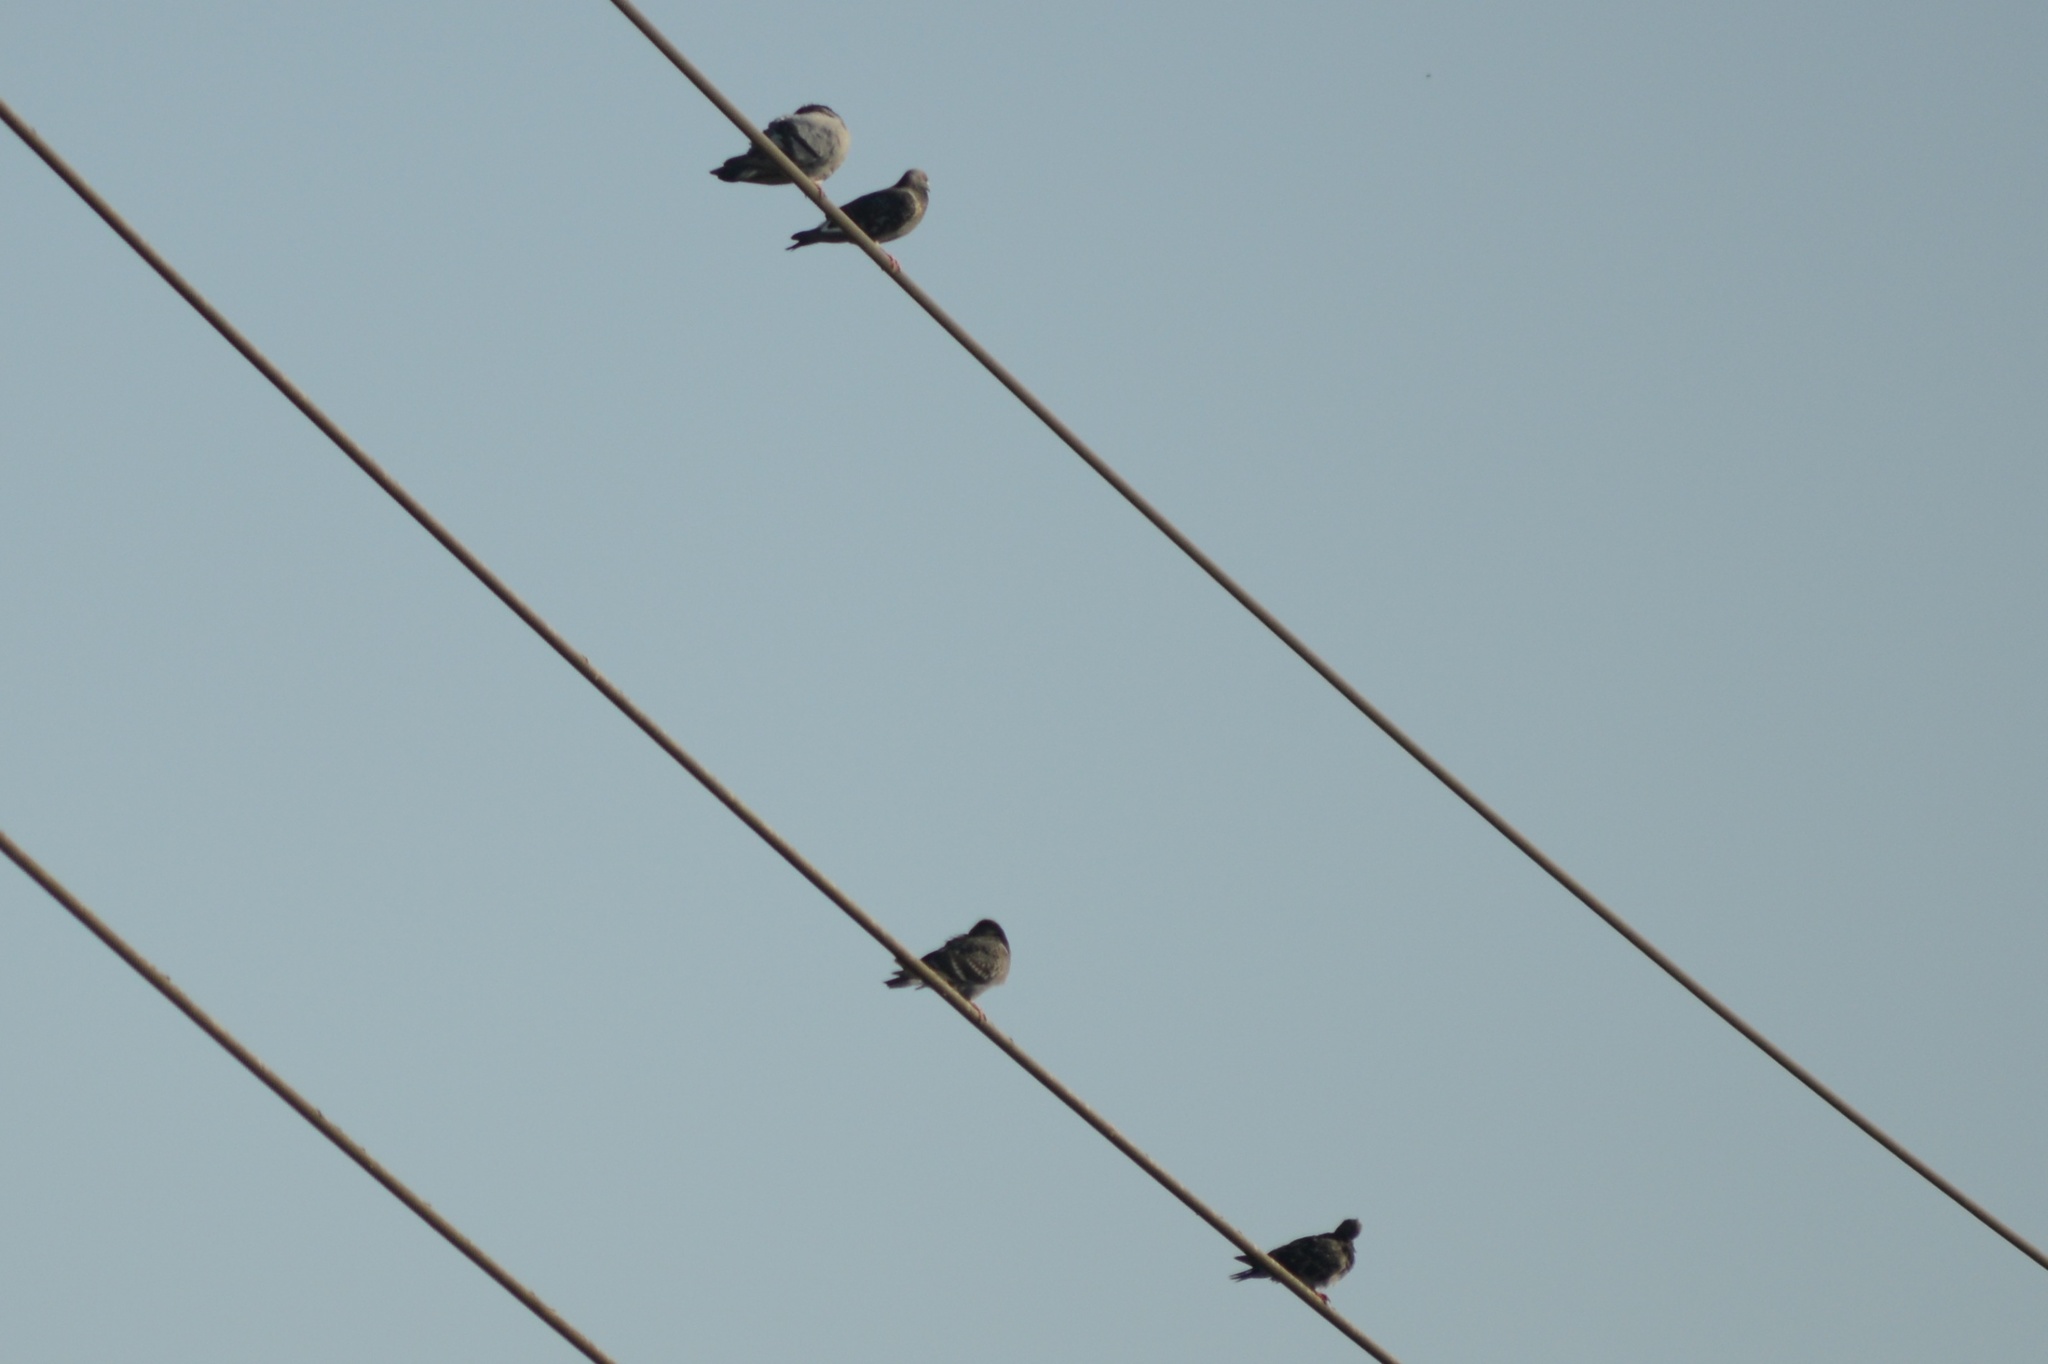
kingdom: Animalia
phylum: Chordata
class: Aves
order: Columbiformes
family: Columbidae
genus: Columba
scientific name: Columba livia
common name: Rock pigeon
